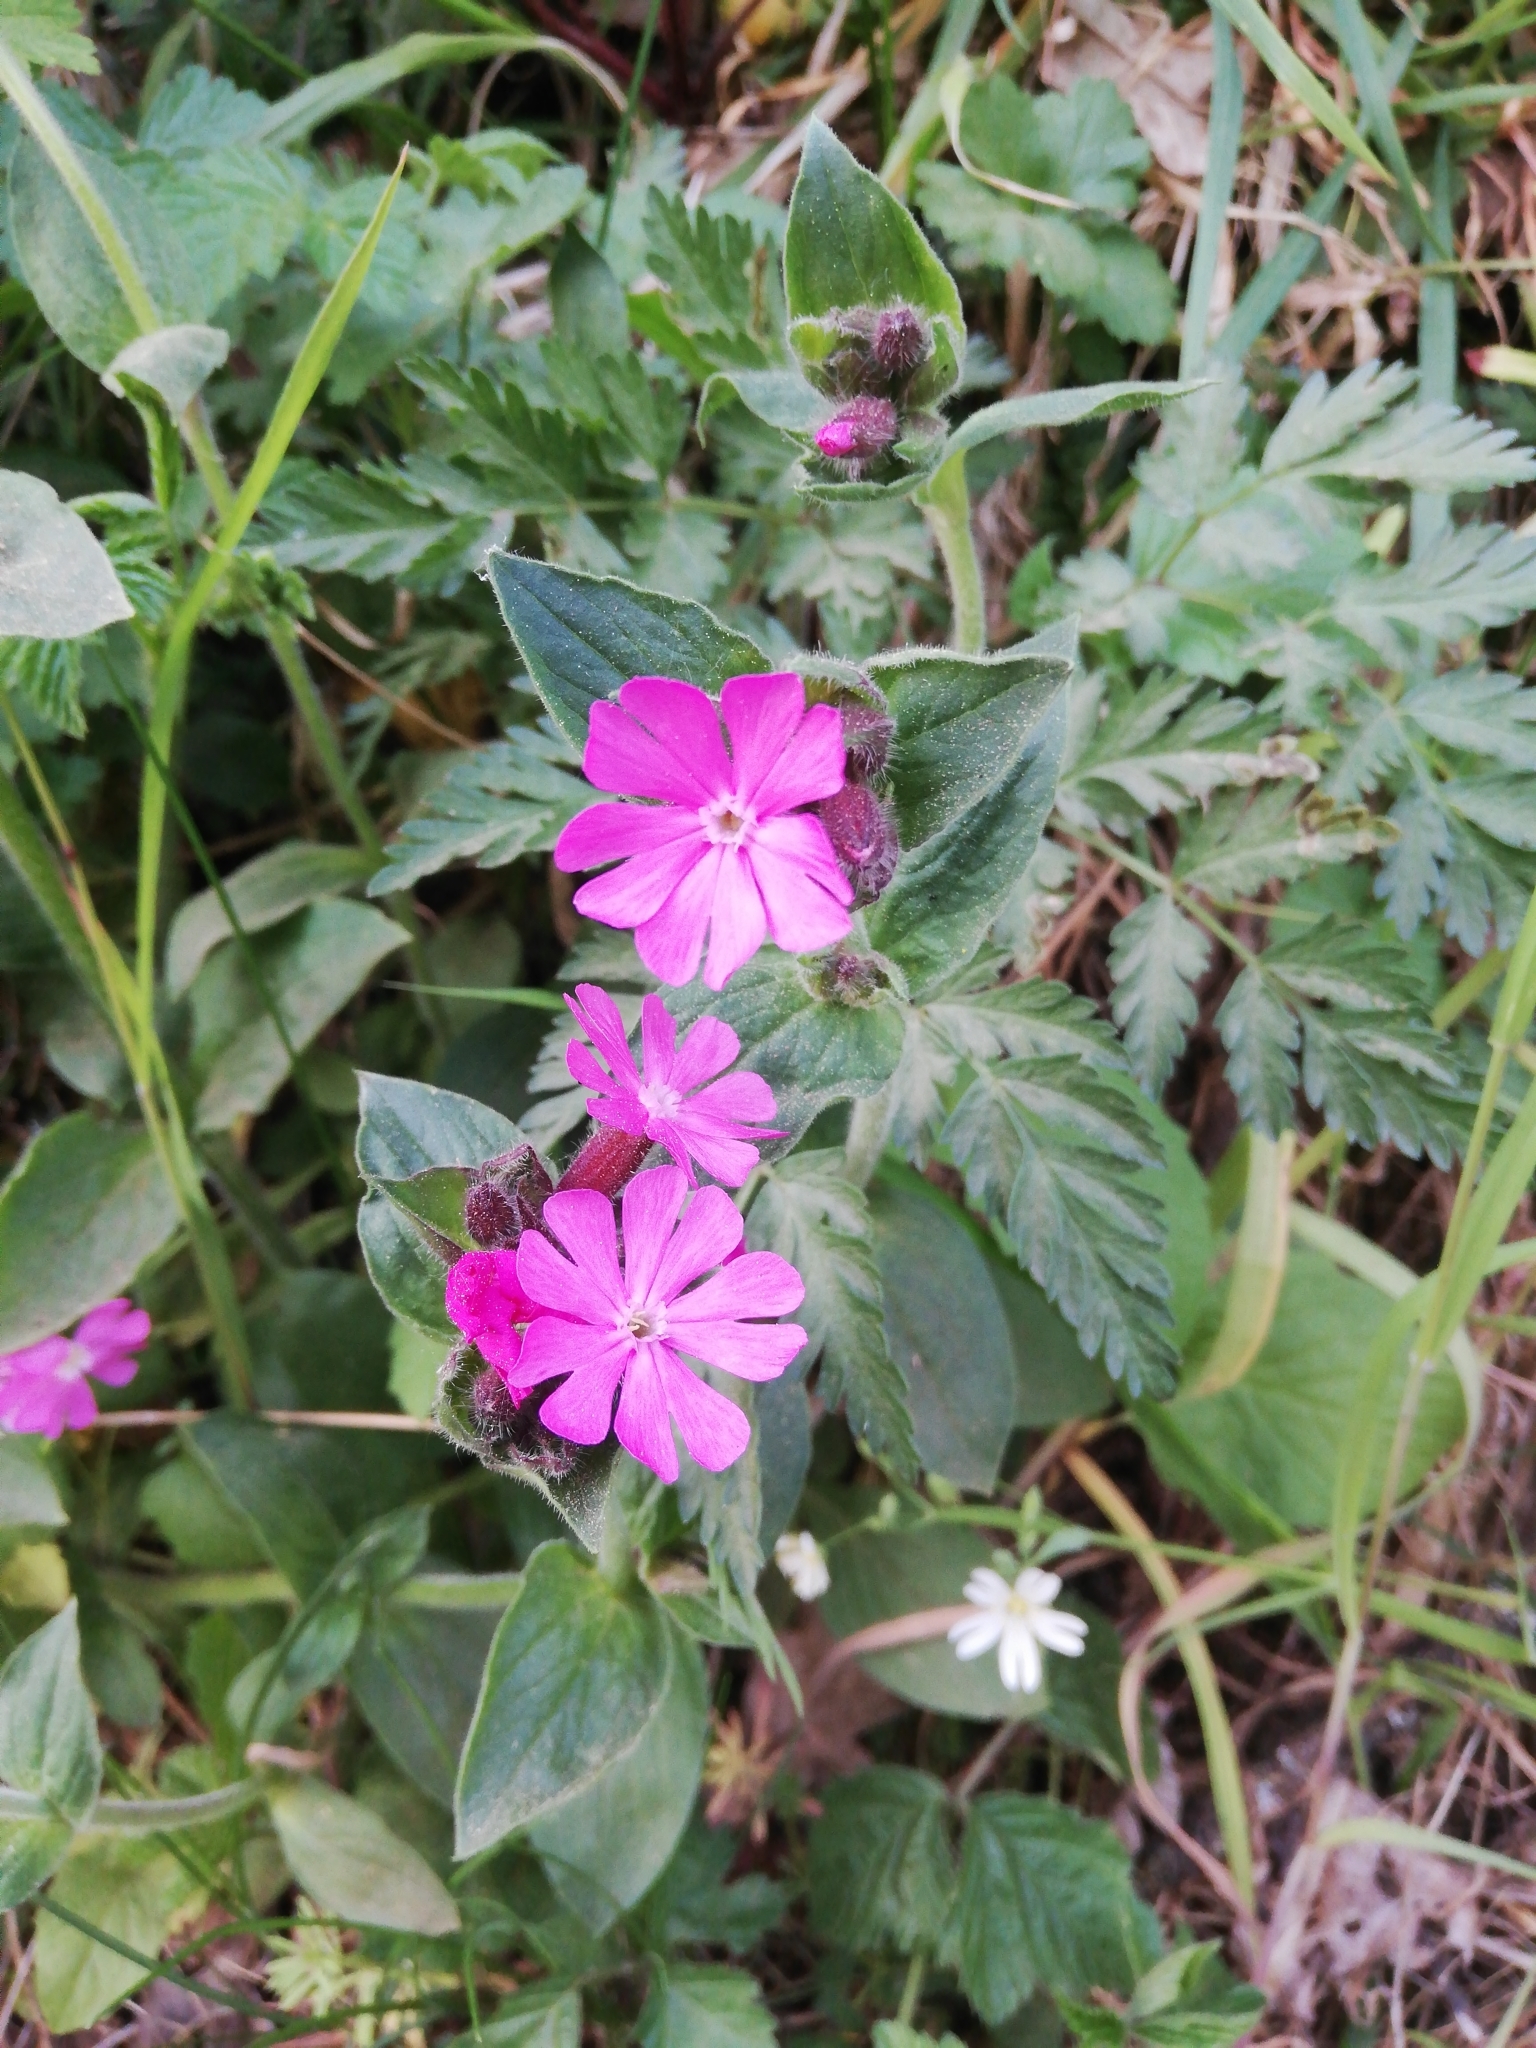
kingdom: Plantae
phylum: Tracheophyta
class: Magnoliopsida
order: Caryophyllales
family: Caryophyllaceae
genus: Silene
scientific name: Silene dioica
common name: Red campion
